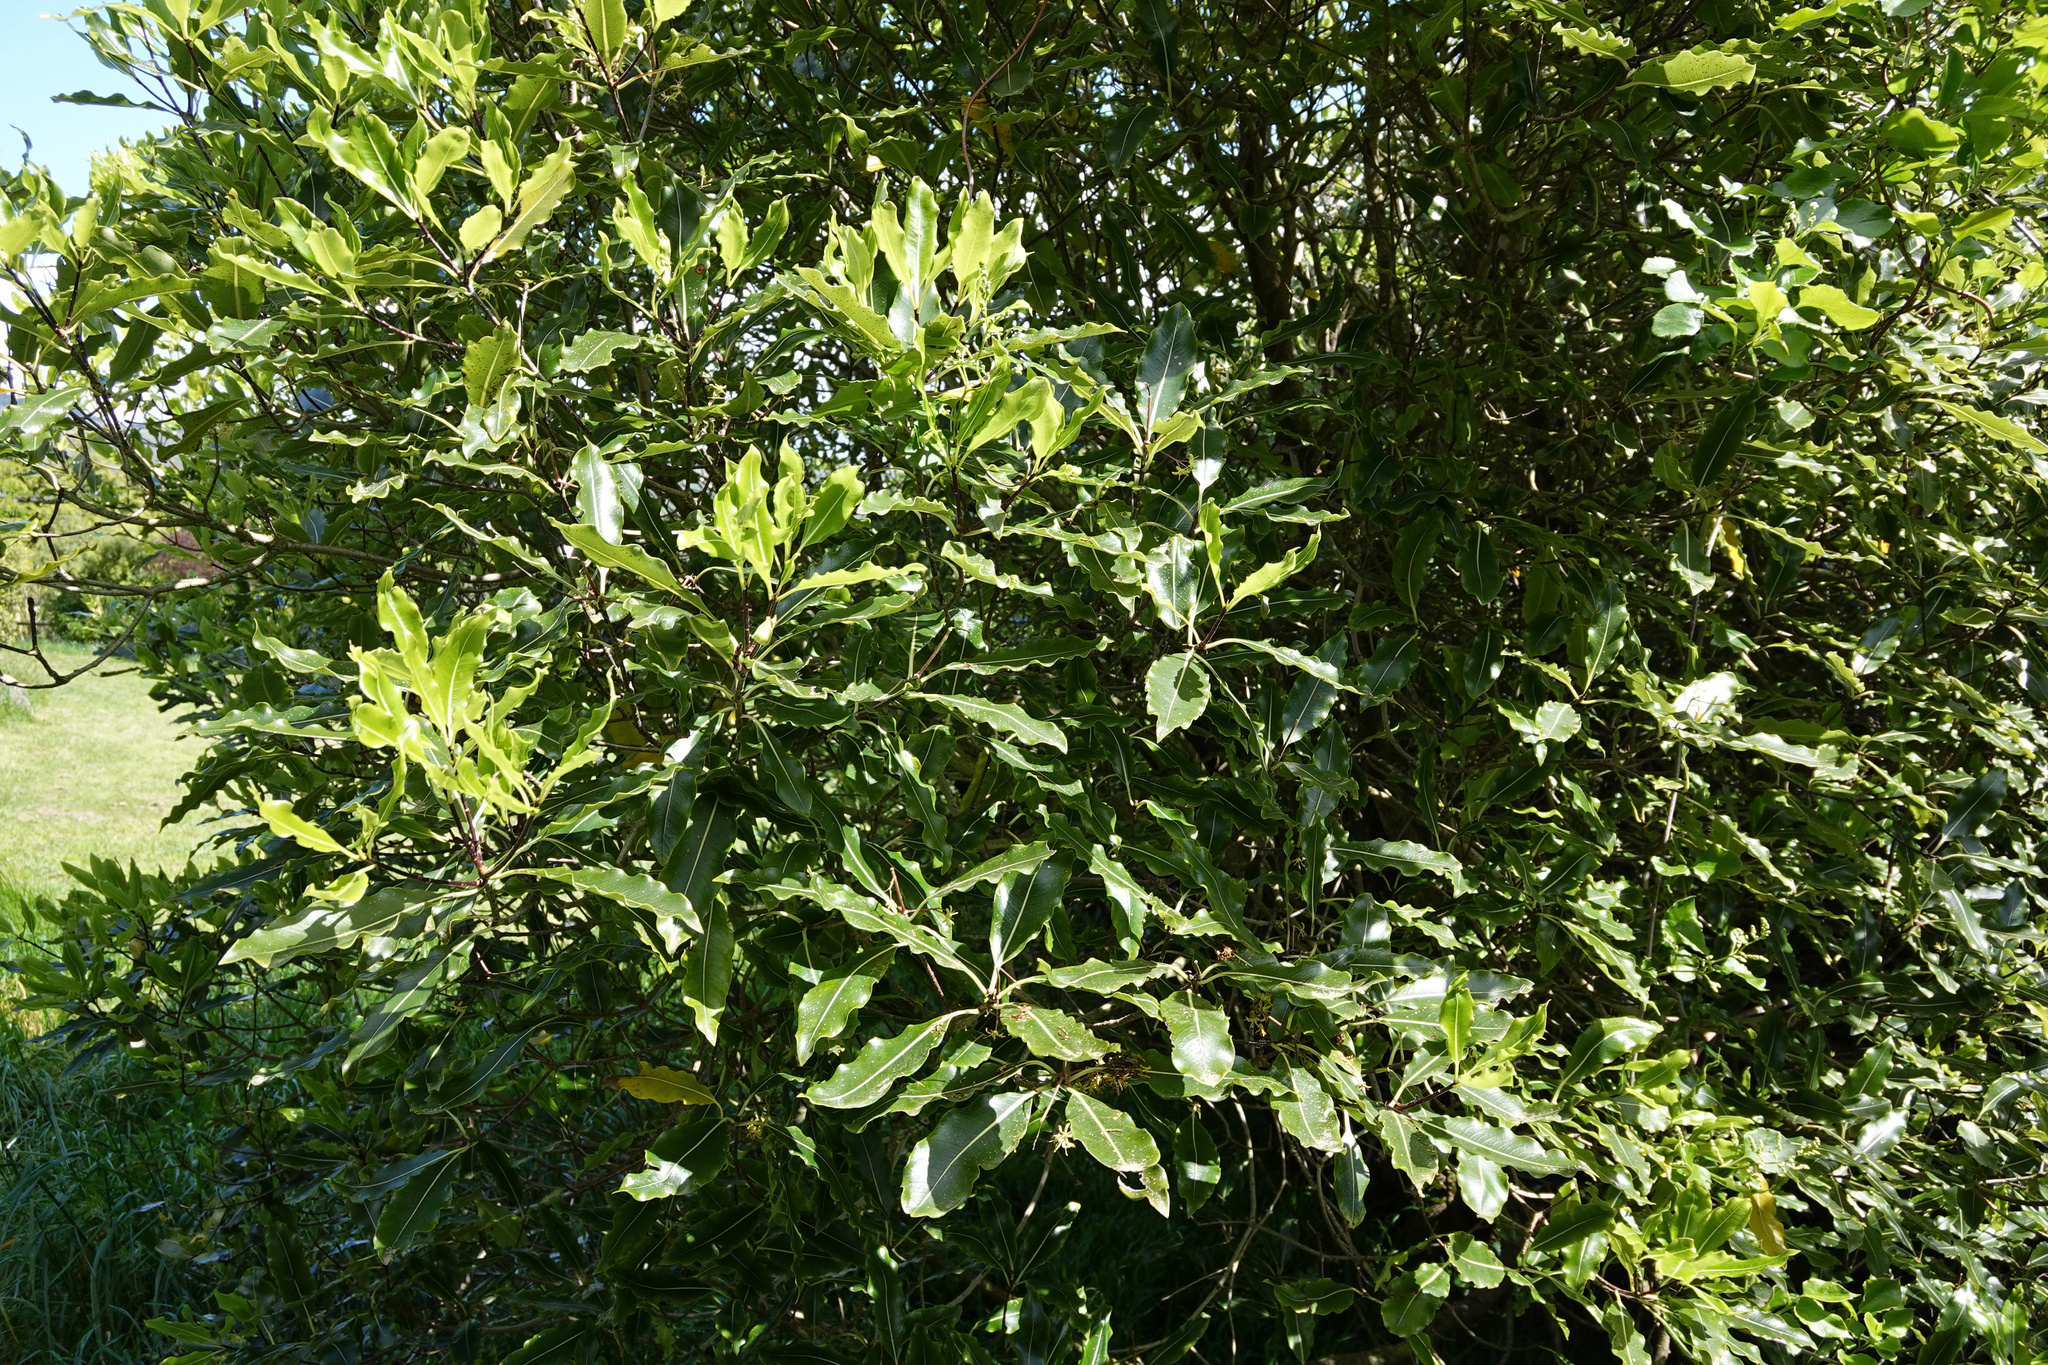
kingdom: Plantae
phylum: Tracheophyta
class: Magnoliopsida
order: Apiales
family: Pittosporaceae
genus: Pittosporum
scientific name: Pittosporum eugenioides
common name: Lemonwood
